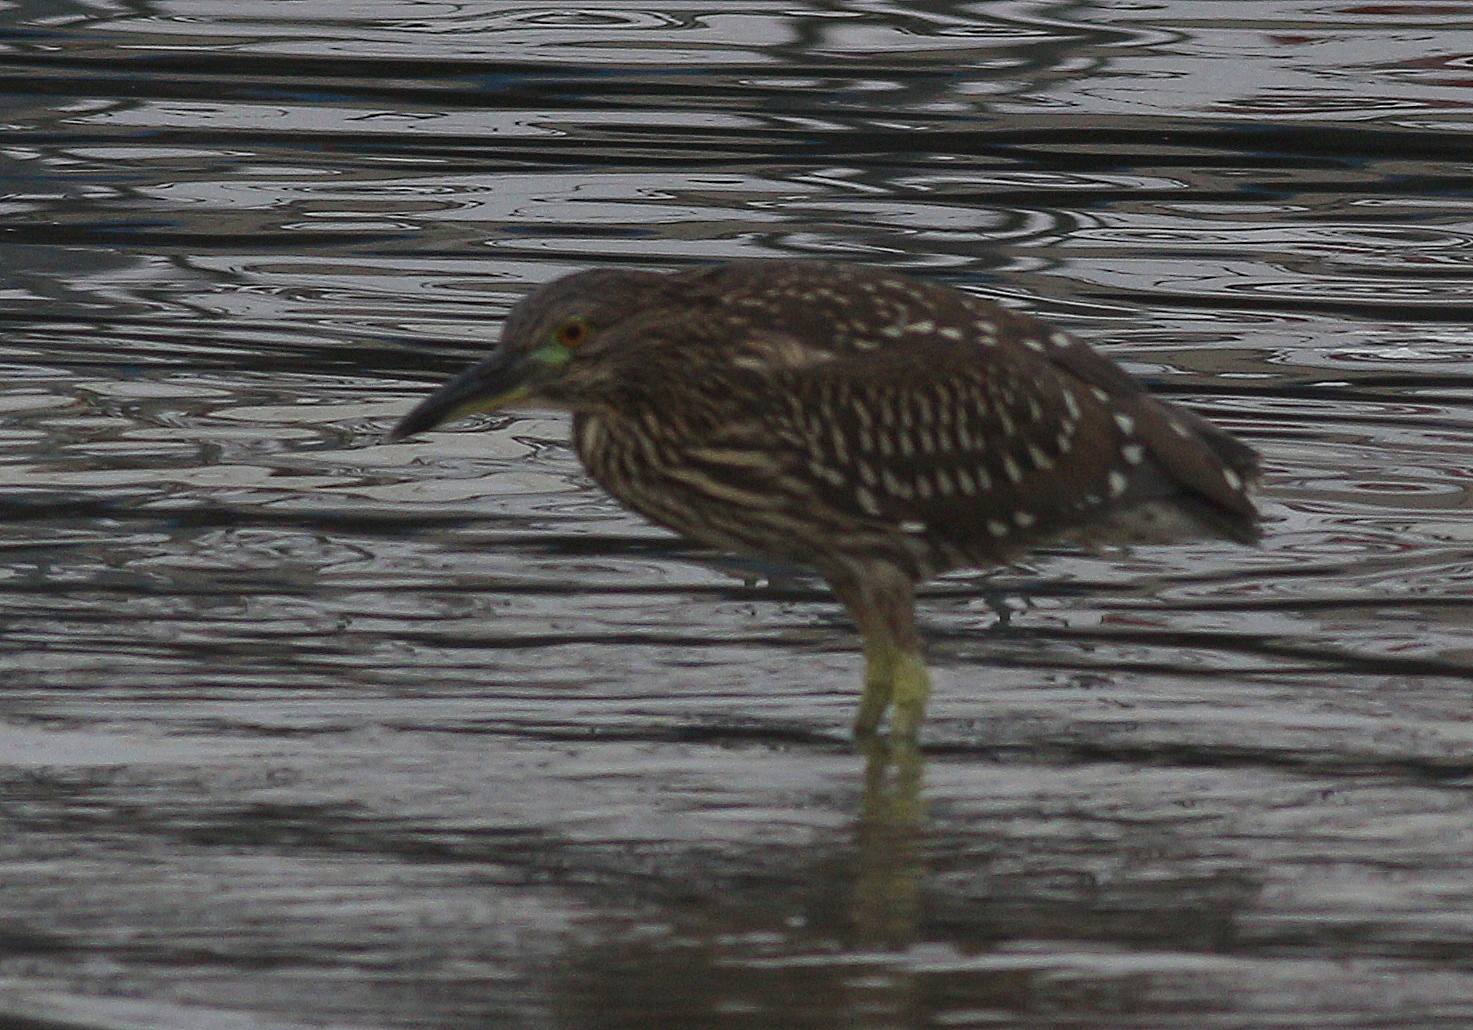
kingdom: Animalia
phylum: Chordata
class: Aves
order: Pelecaniformes
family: Ardeidae
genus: Nycticorax
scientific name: Nycticorax nycticorax
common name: Black-crowned night heron
